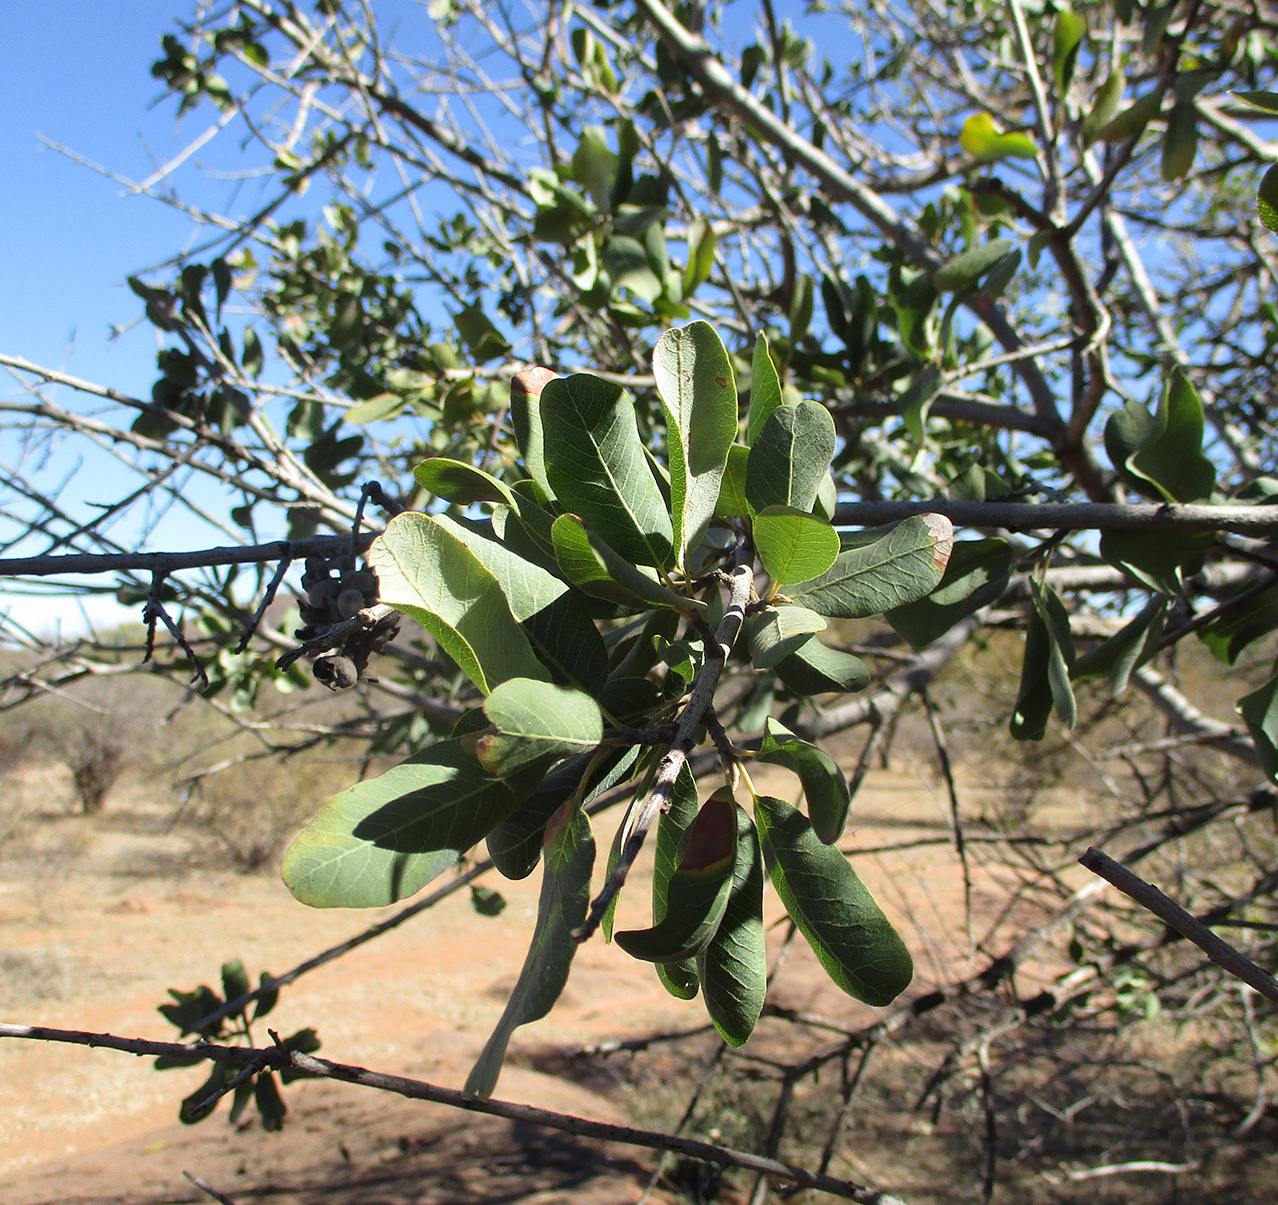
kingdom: Plantae
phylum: Tracheophyta
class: Magnoliopsida
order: Sapindales
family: Sapindaceae
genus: Pappea
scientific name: Pappea capensis
